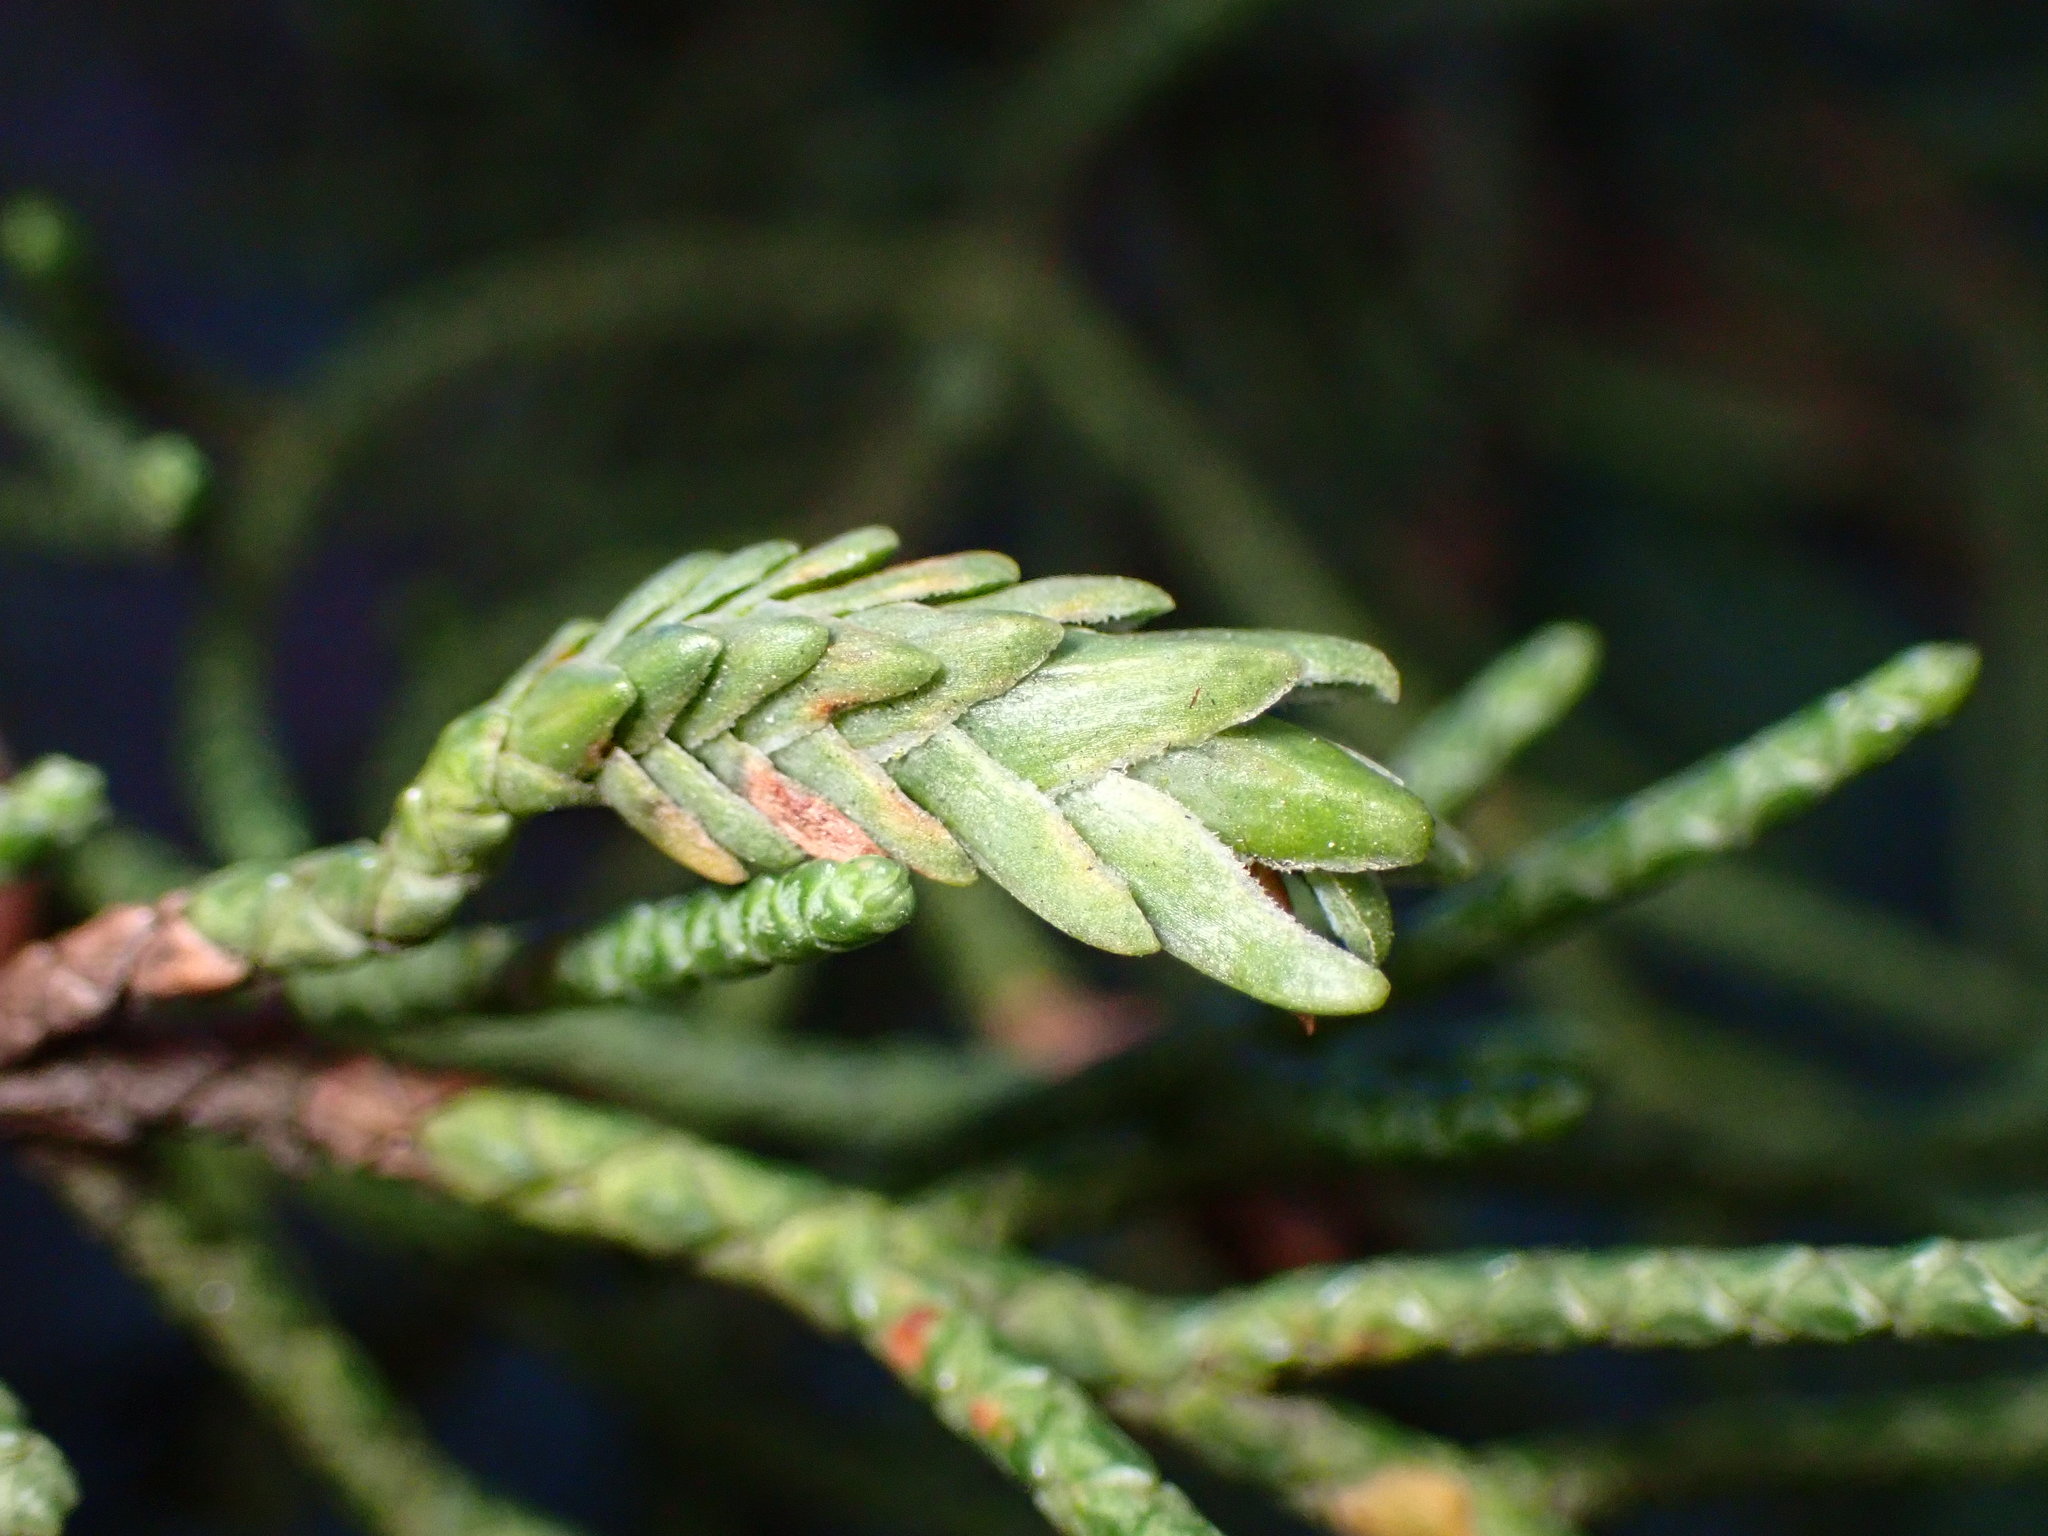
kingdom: Animalia
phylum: Arthropoda
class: Insecta
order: Diptera
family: Cecidomyiidae
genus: Oligotrophus
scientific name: Oligotrophus cupressi
